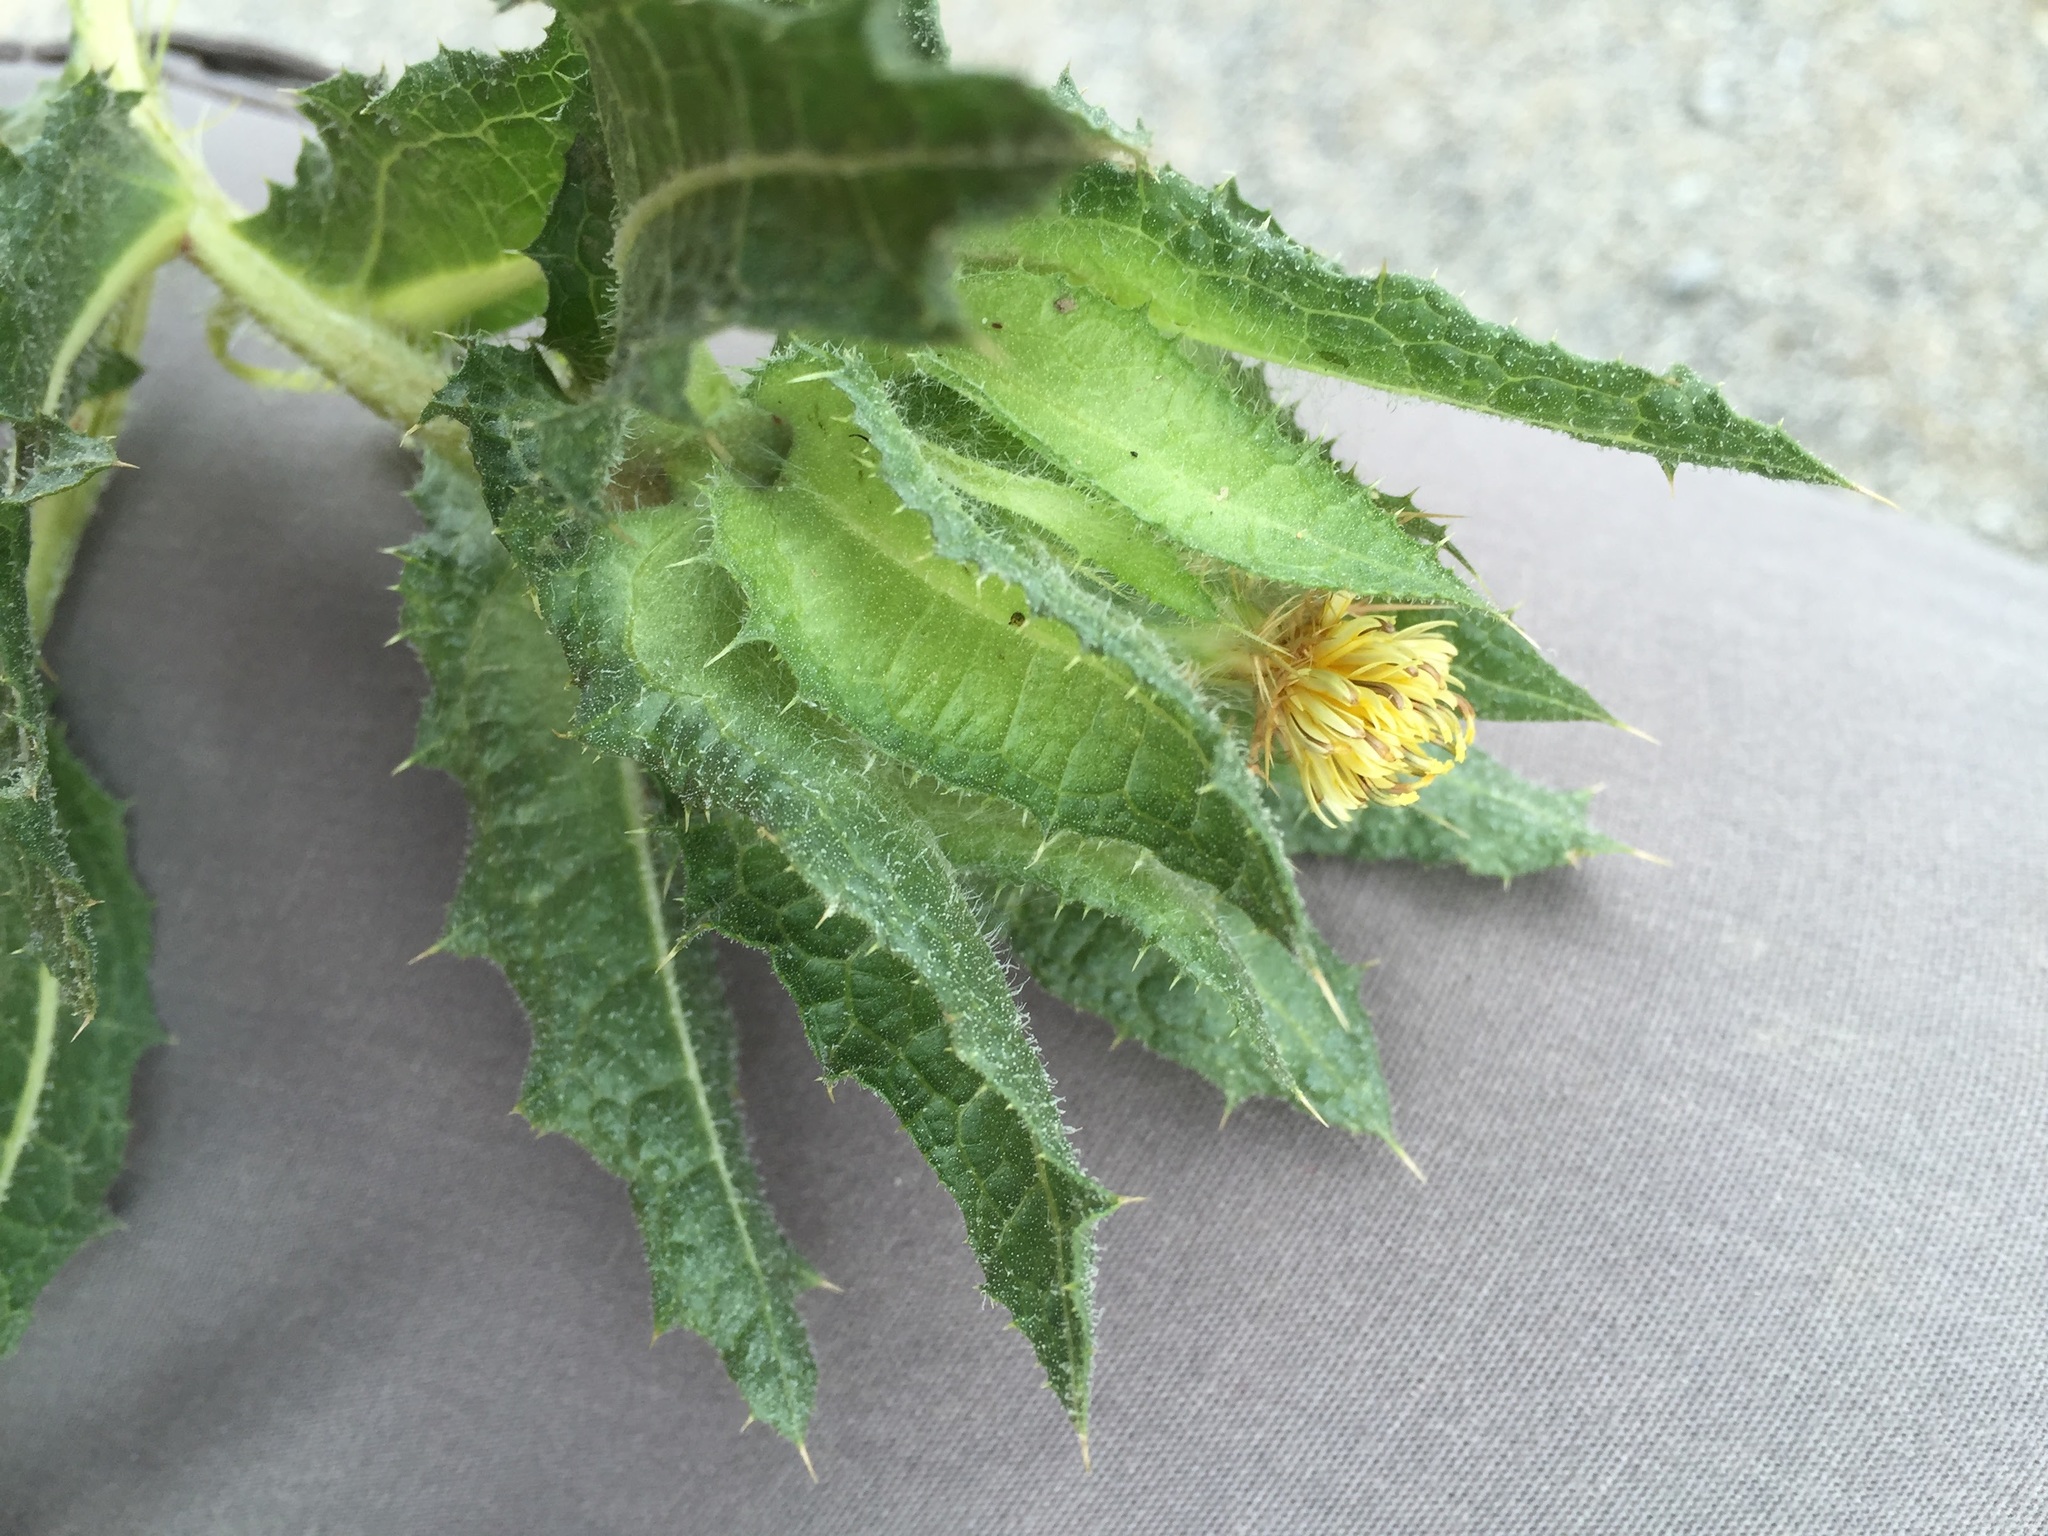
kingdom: Plantae
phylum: Tracheophyta
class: Magnoliopsida
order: Asterales
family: Asteraceae
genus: Centaurea
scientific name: Centaurea benedicta
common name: Blessed thistle
